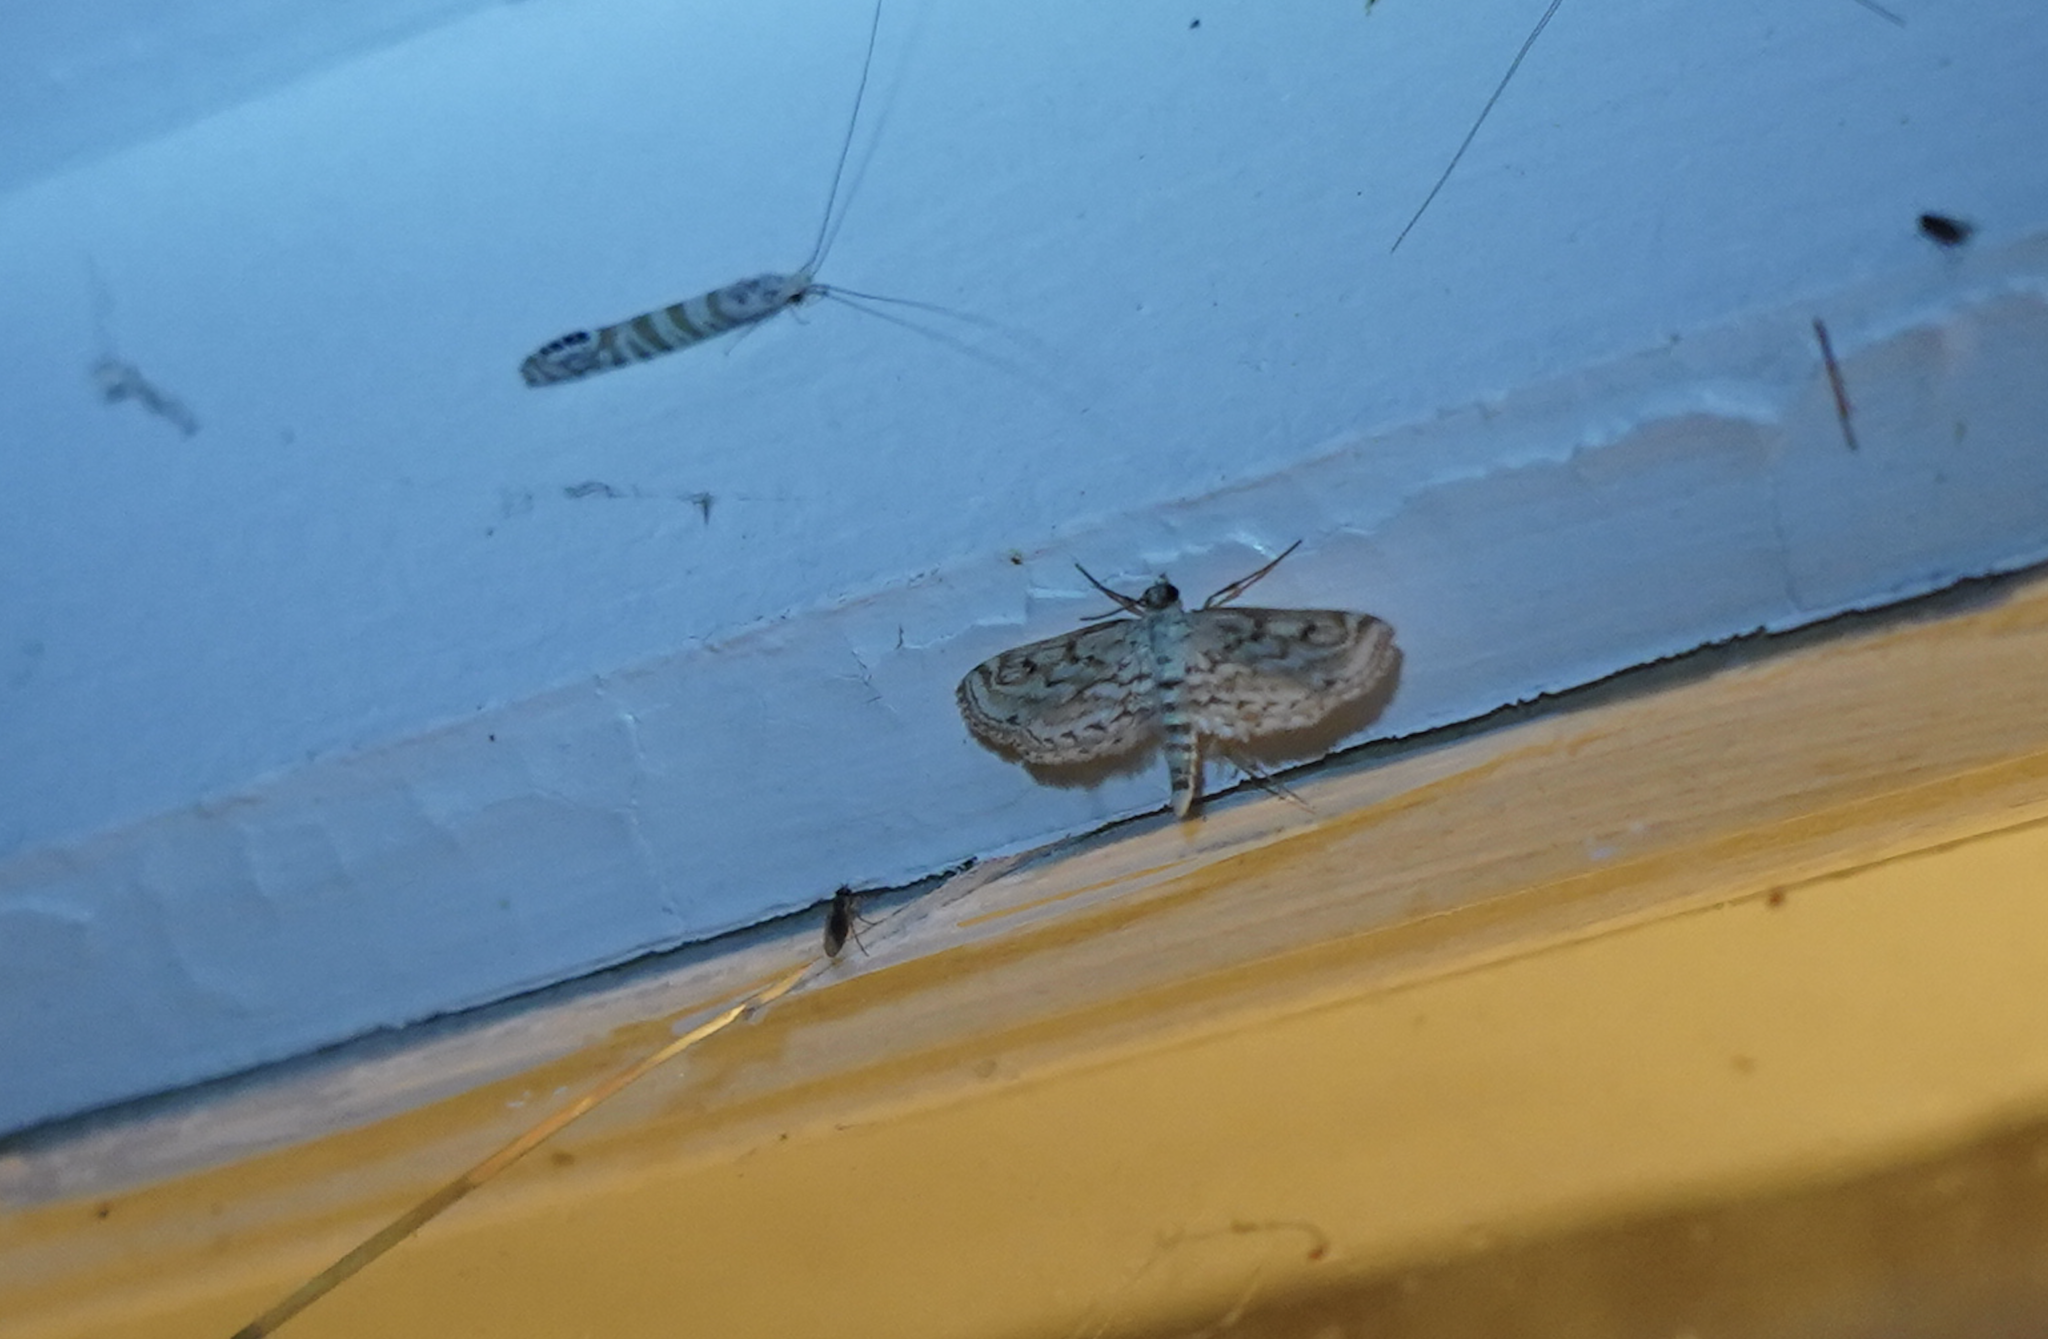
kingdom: Animalia
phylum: Arthropoda
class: Insecta
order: Lepidoptera
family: Crambidae
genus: Parapoynx
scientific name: Parapoynx allionealis
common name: Bladderwort casemaker
